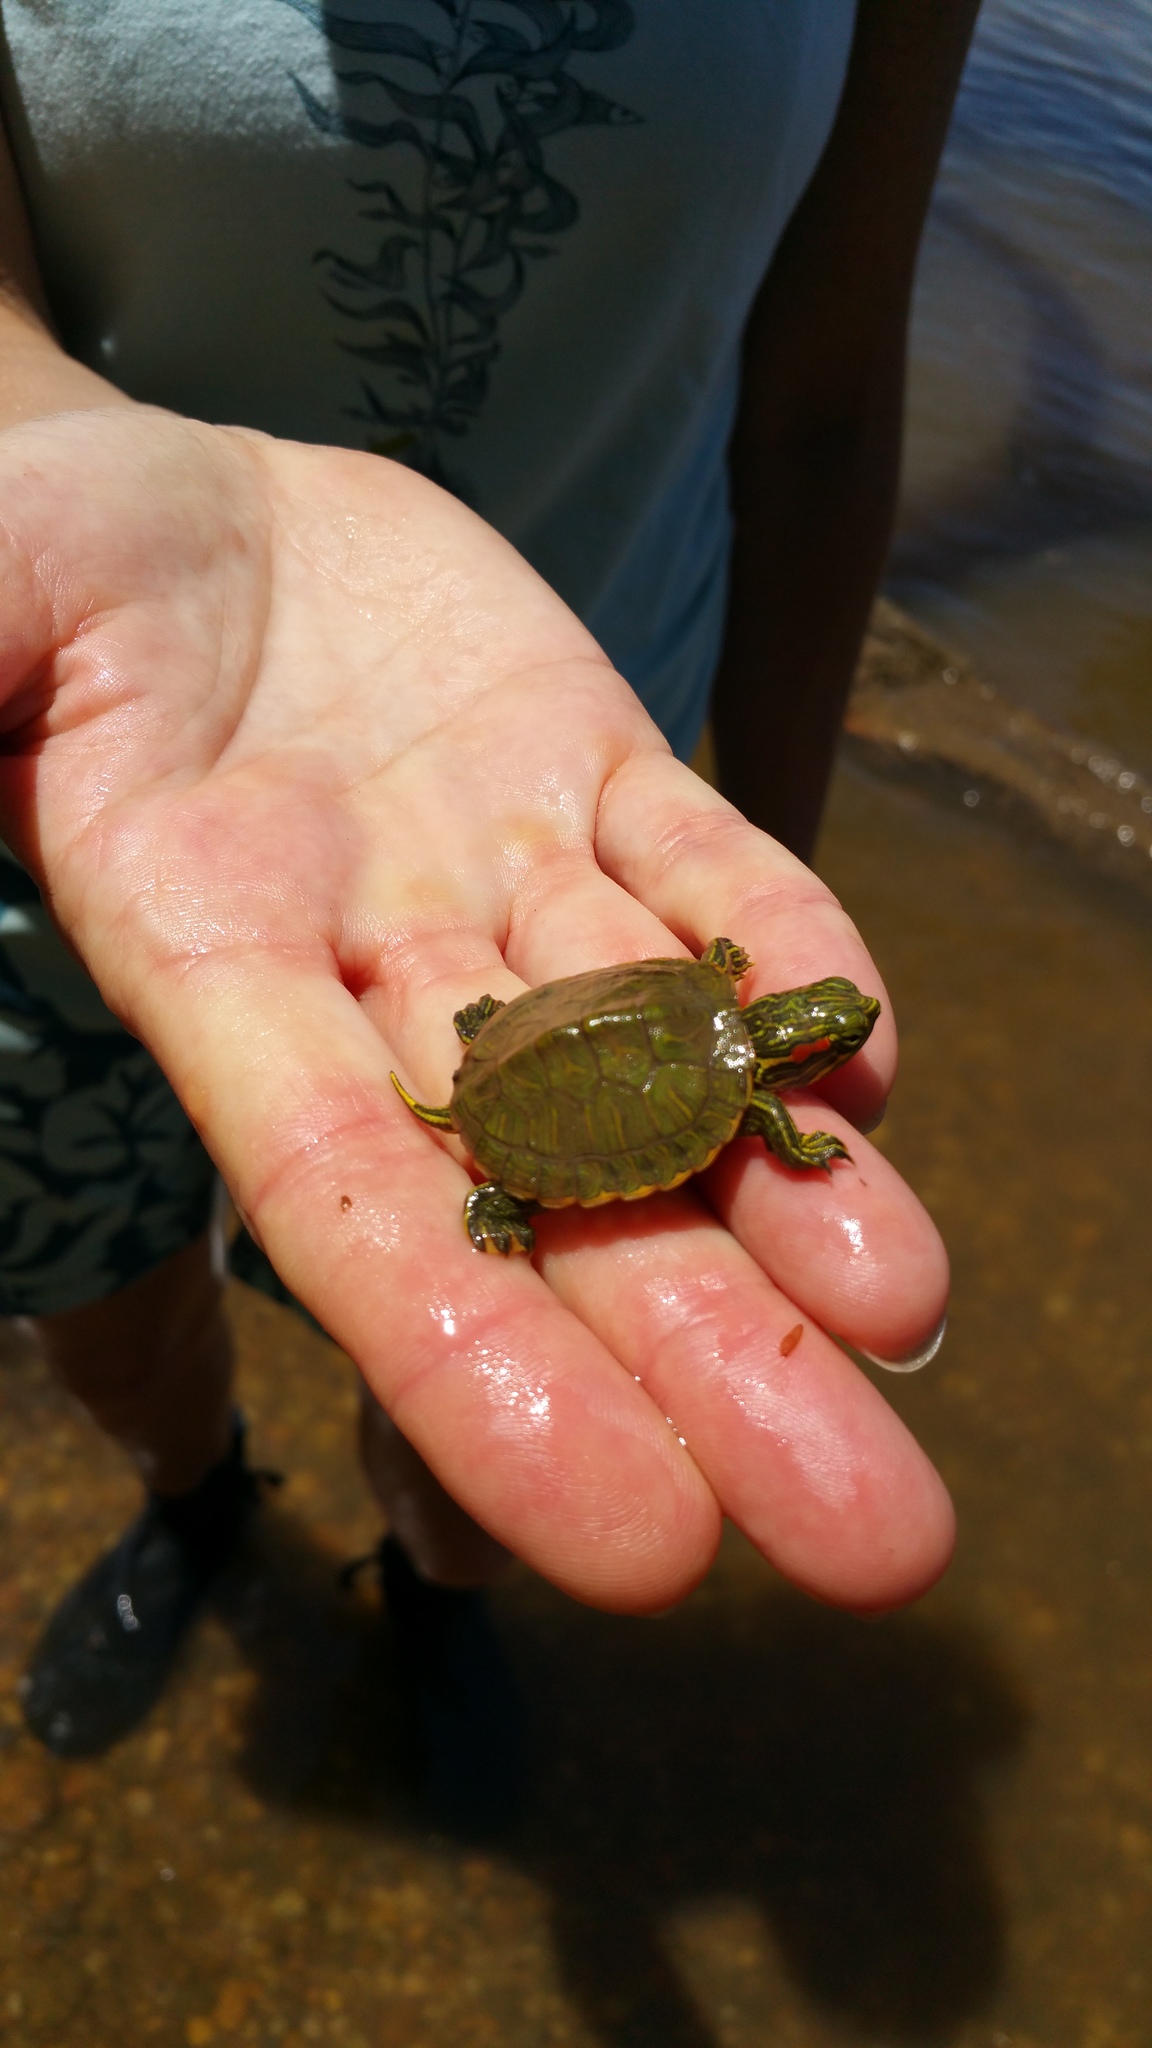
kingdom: Animalia
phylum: Chordata
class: Testudines
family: Emydidae
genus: Trachemys
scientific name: Trachemys scripta
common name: Slider
